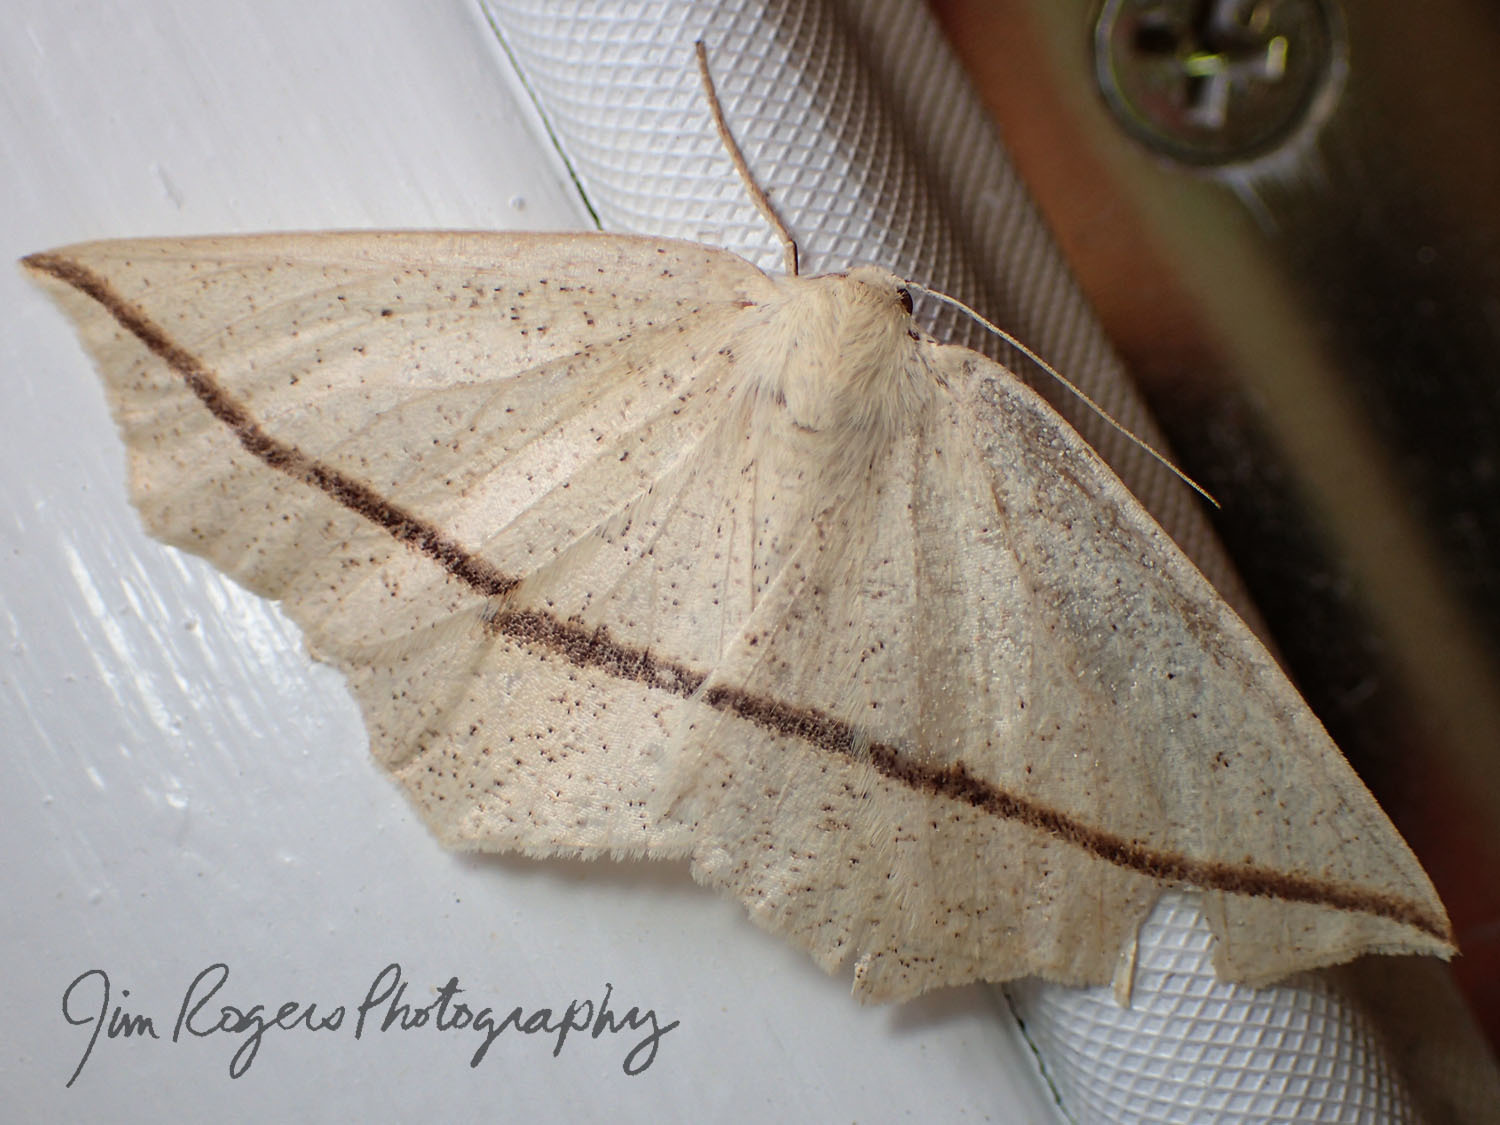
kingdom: Animalia
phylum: Arthropoda
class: Insecta
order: Lepidoptera
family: Geometridae
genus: Tetracis
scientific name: Tetracis crocallata
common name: Yellow slant-line
